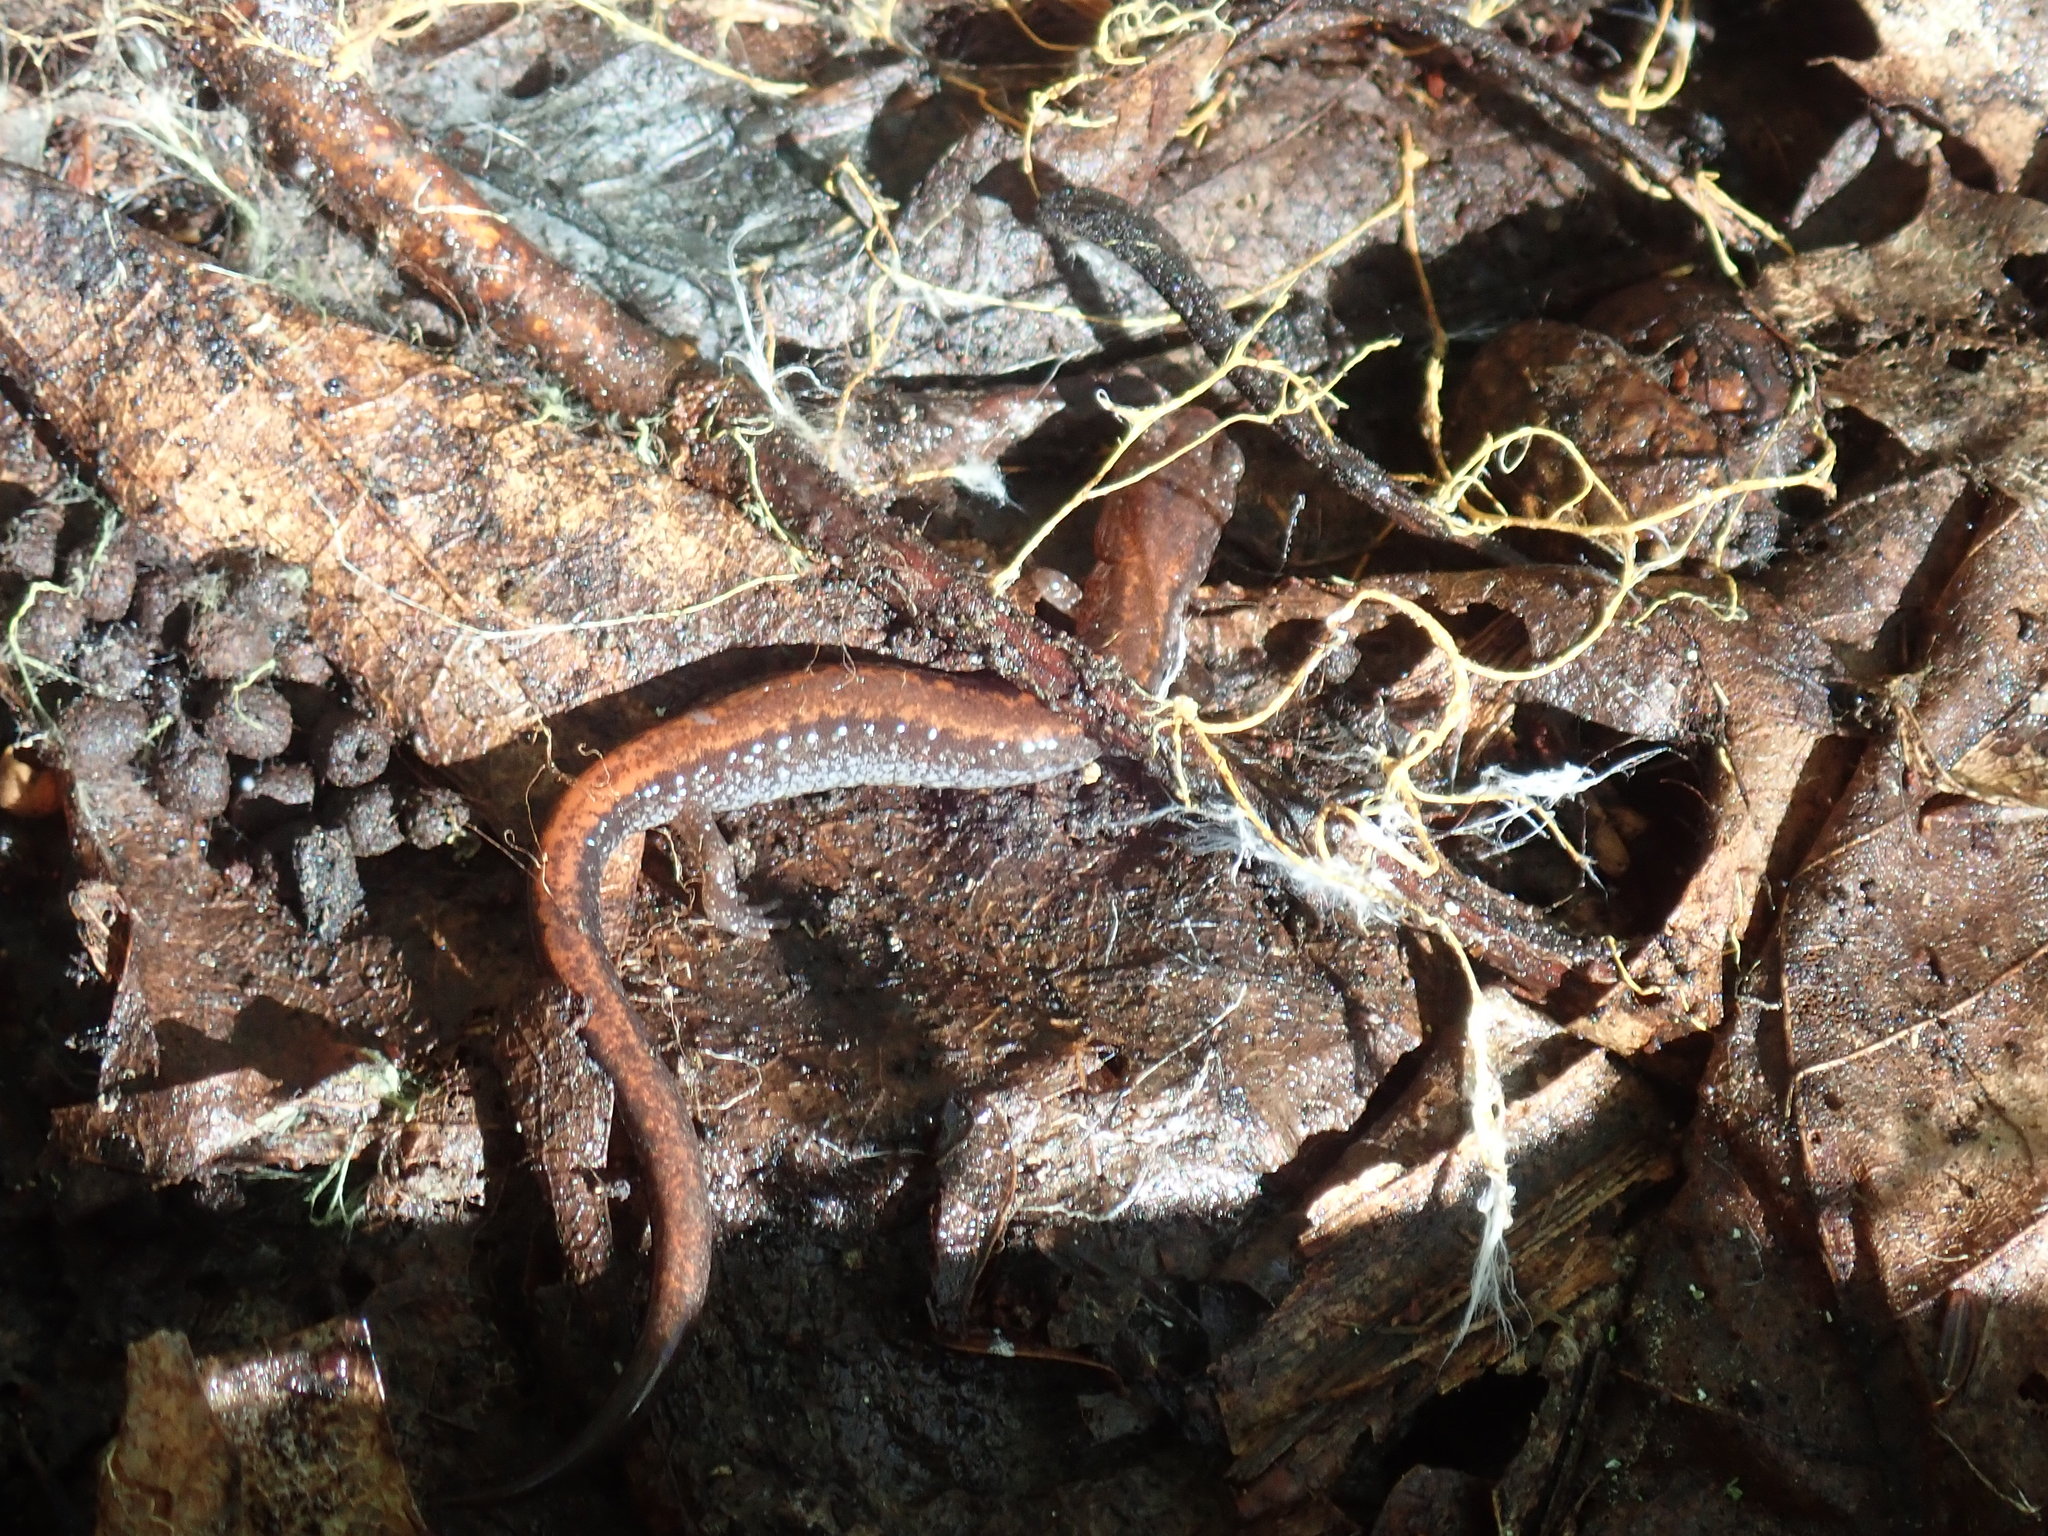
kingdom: Animalia
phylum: Chordata
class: Amphibia
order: Caudata
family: Plethodontidae
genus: Plethodon
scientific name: Plethodon cinereus
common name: Redback salamander
